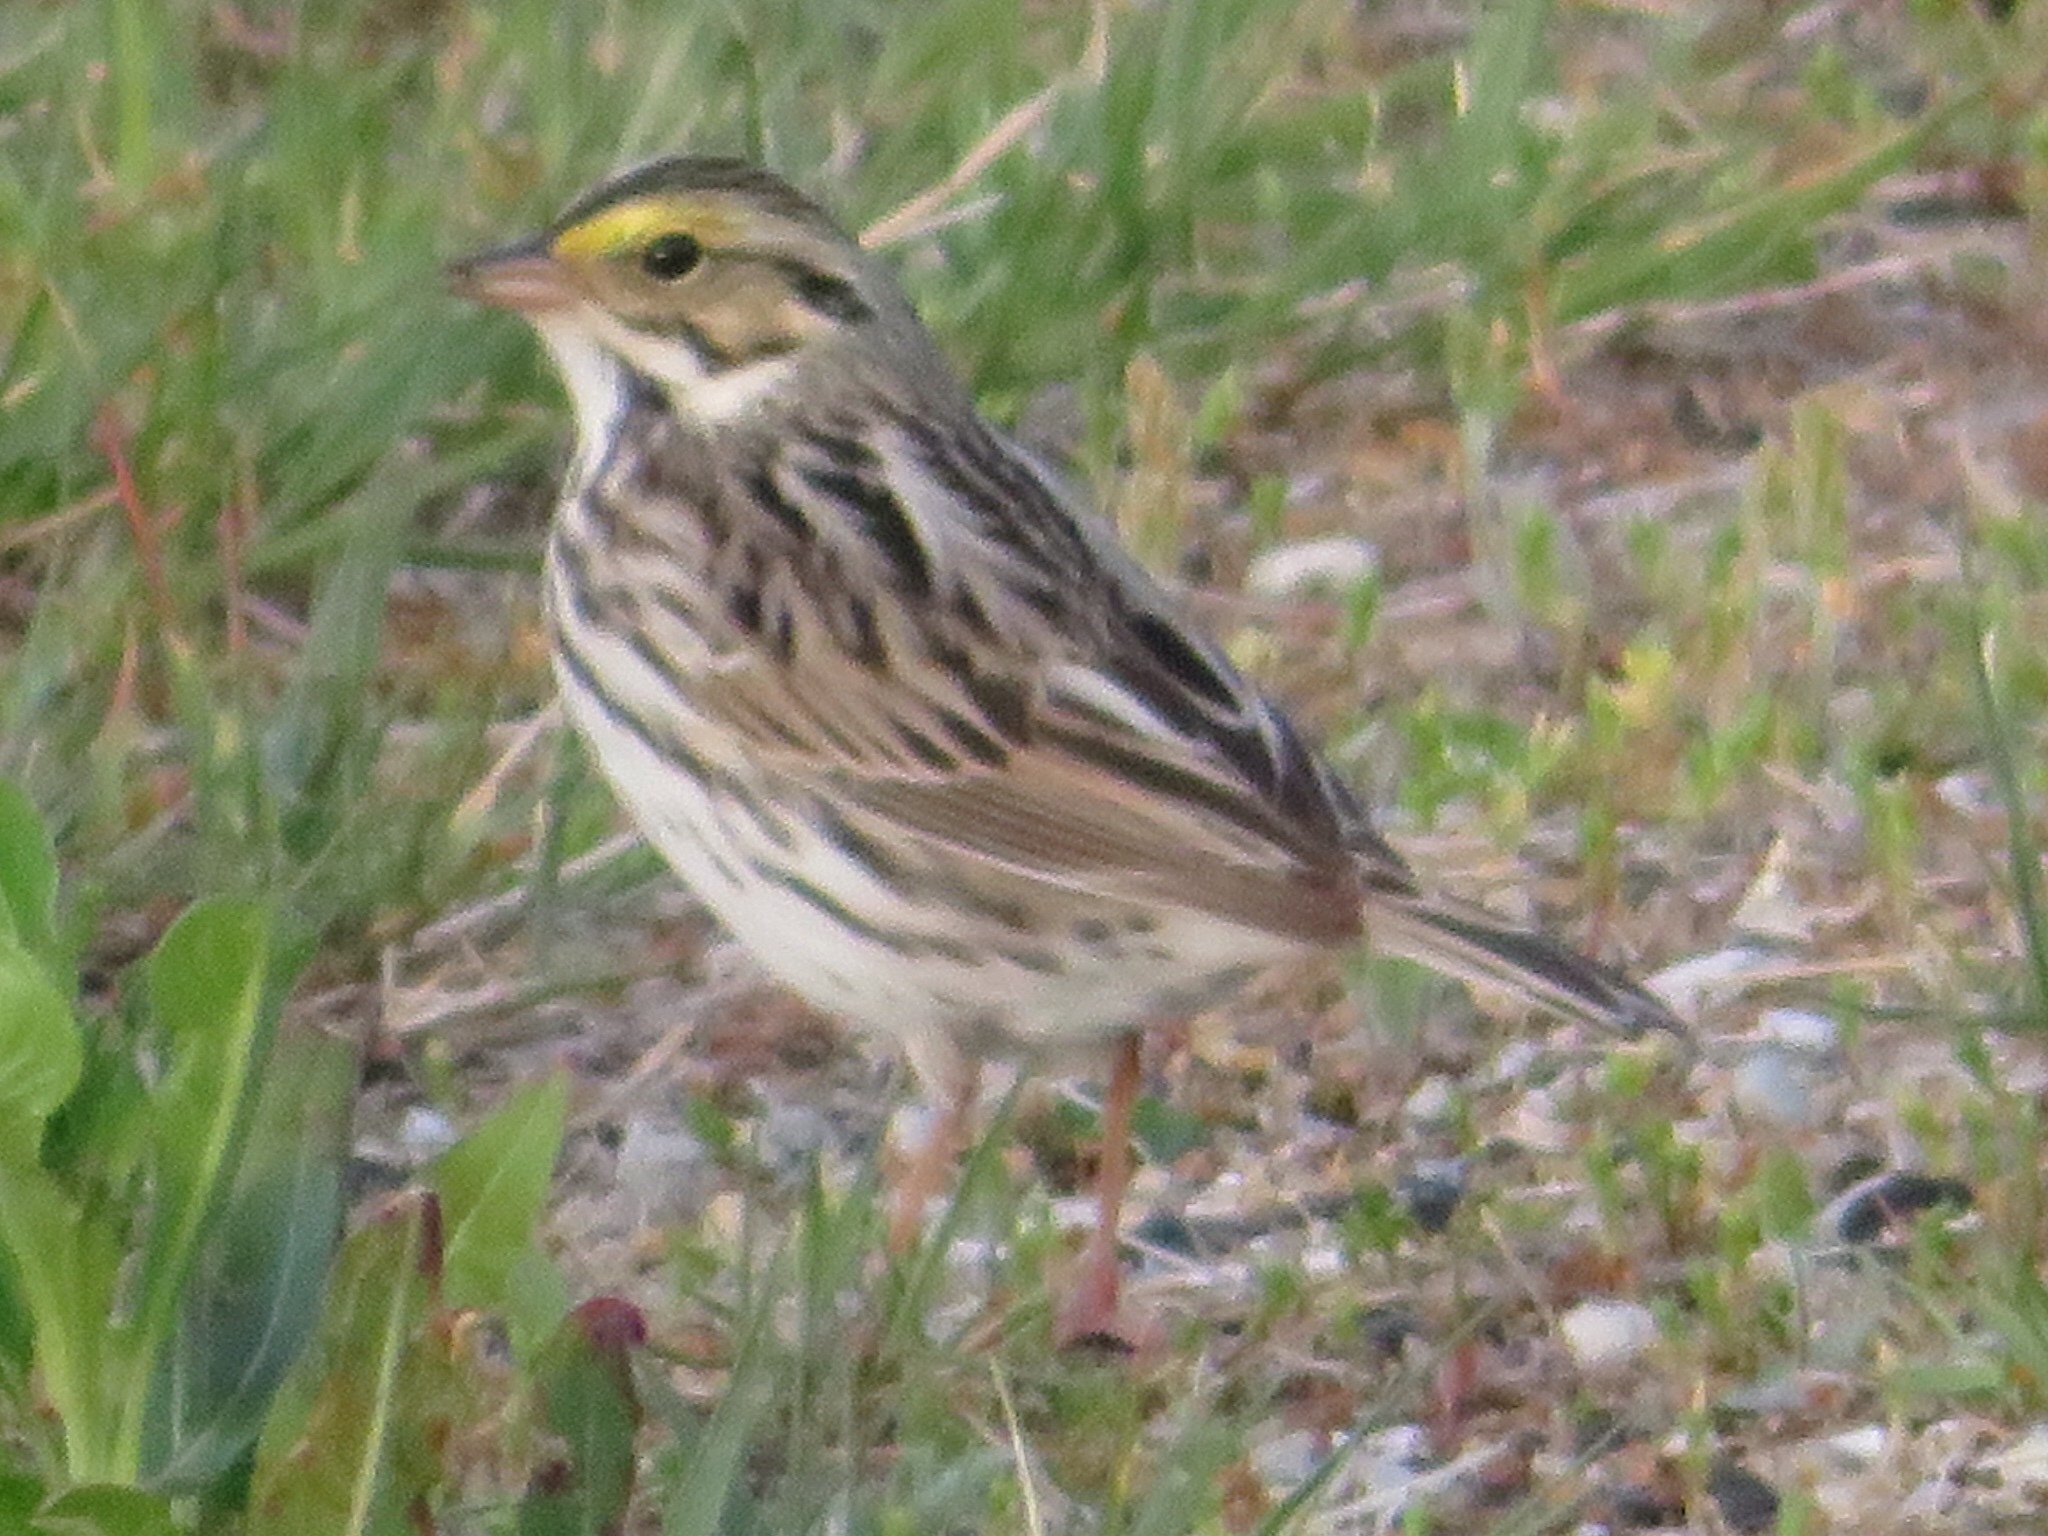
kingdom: Animalia
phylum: Chordata
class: Aves
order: Passeriformes
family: Passerellidae
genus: Passerculus
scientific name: Passerculus sandwichensis
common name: Savannah sparrow
